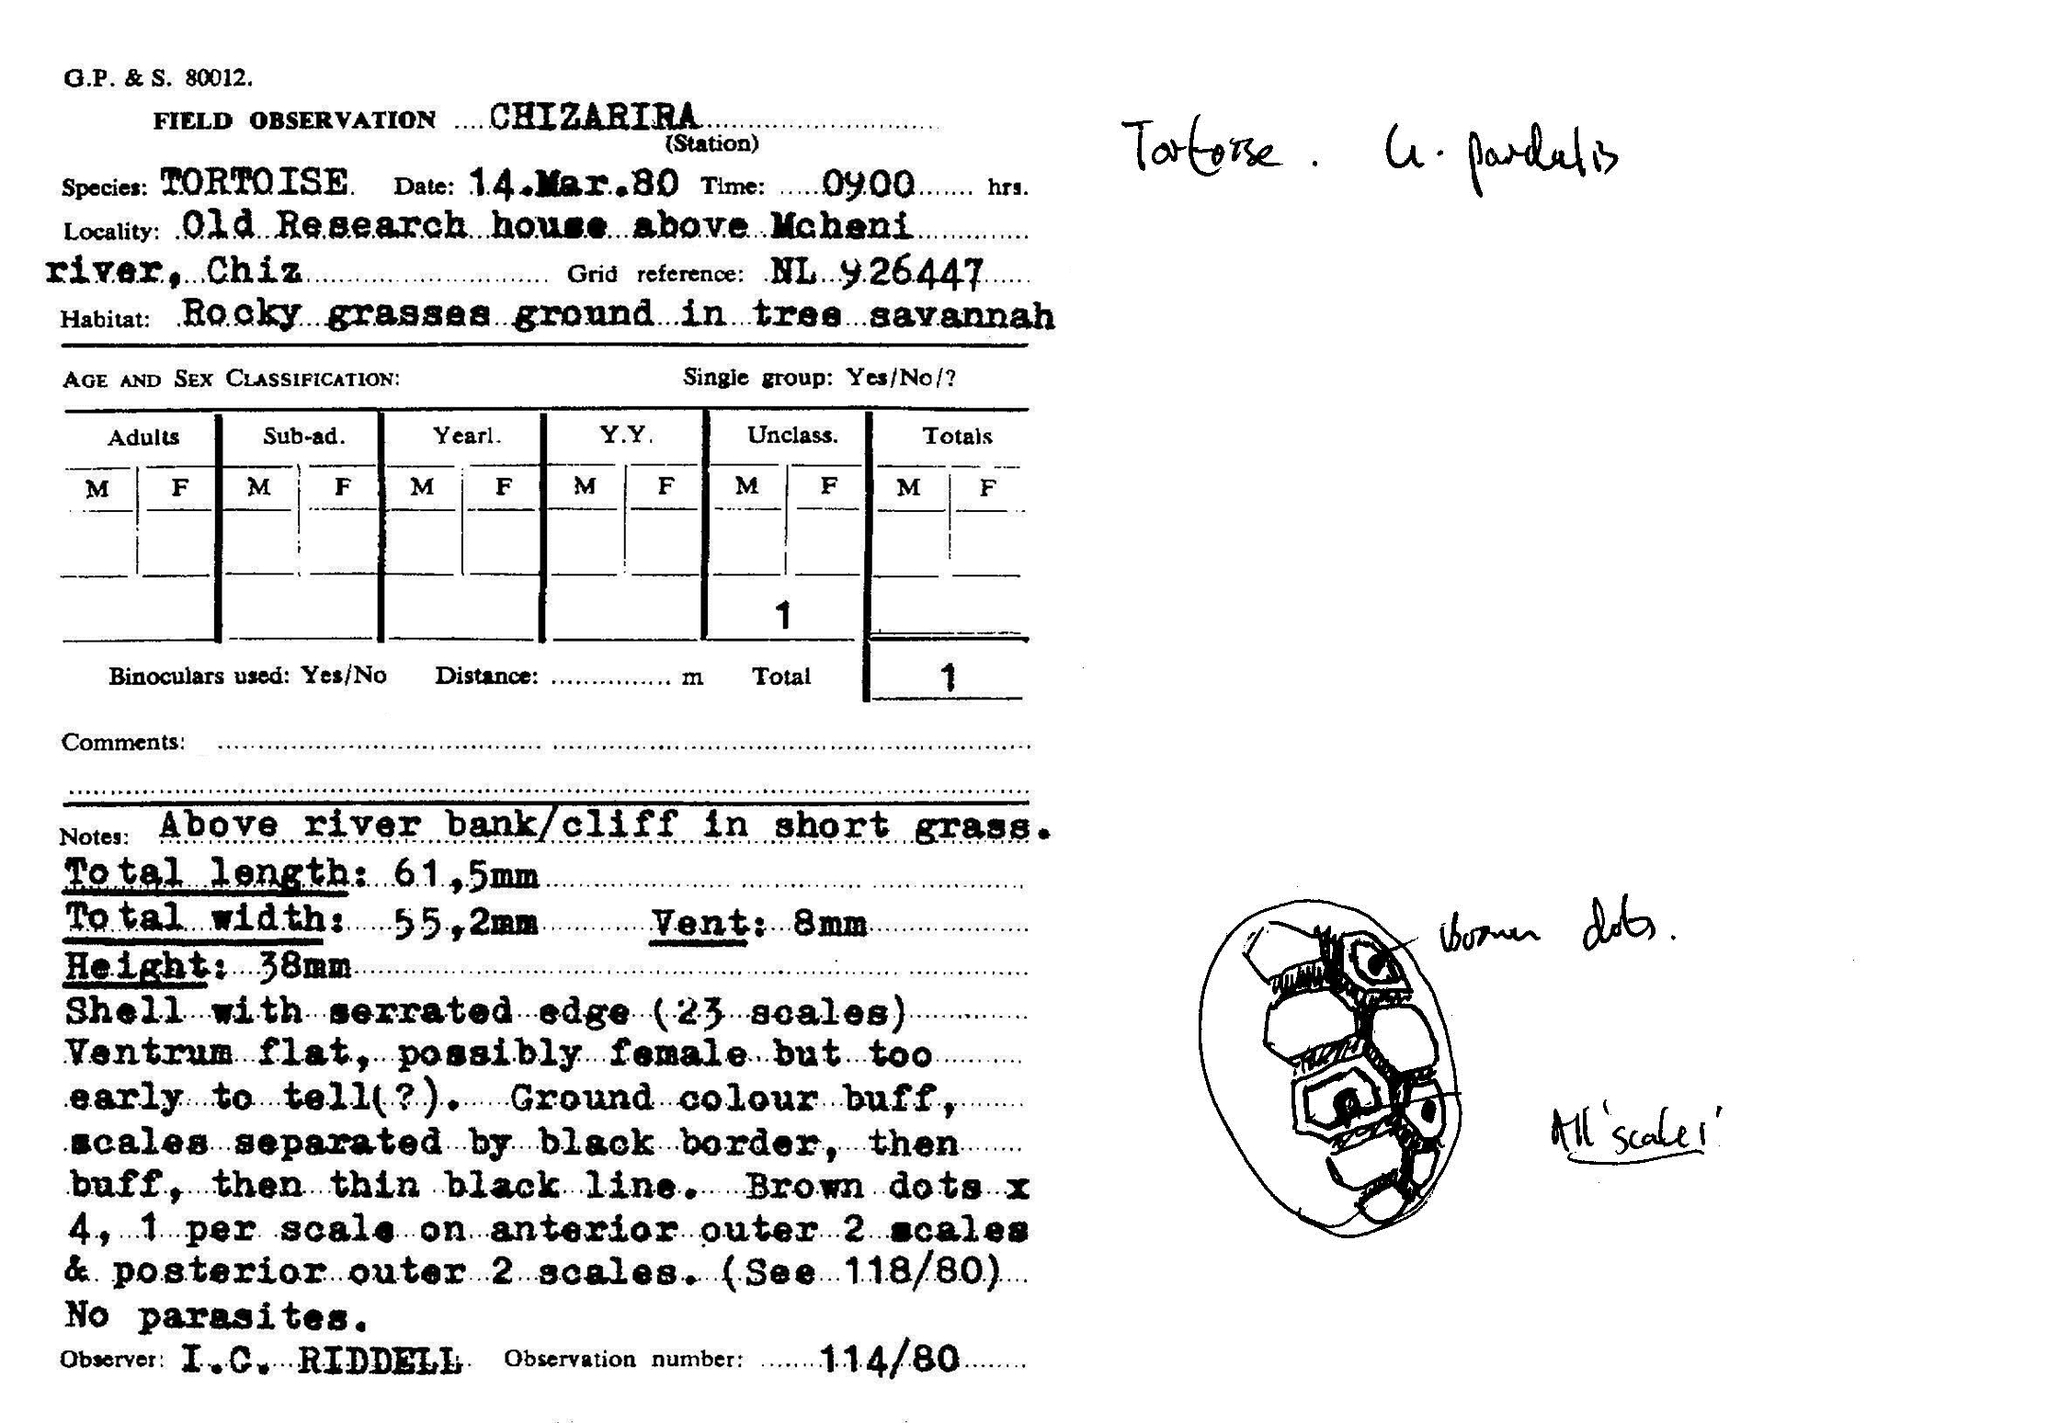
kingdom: Animalia
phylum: Chordata
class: Testudines
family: Testudinidae
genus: Stigmochelys
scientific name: Stigmochelys pardalis
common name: Leopard tortoise
